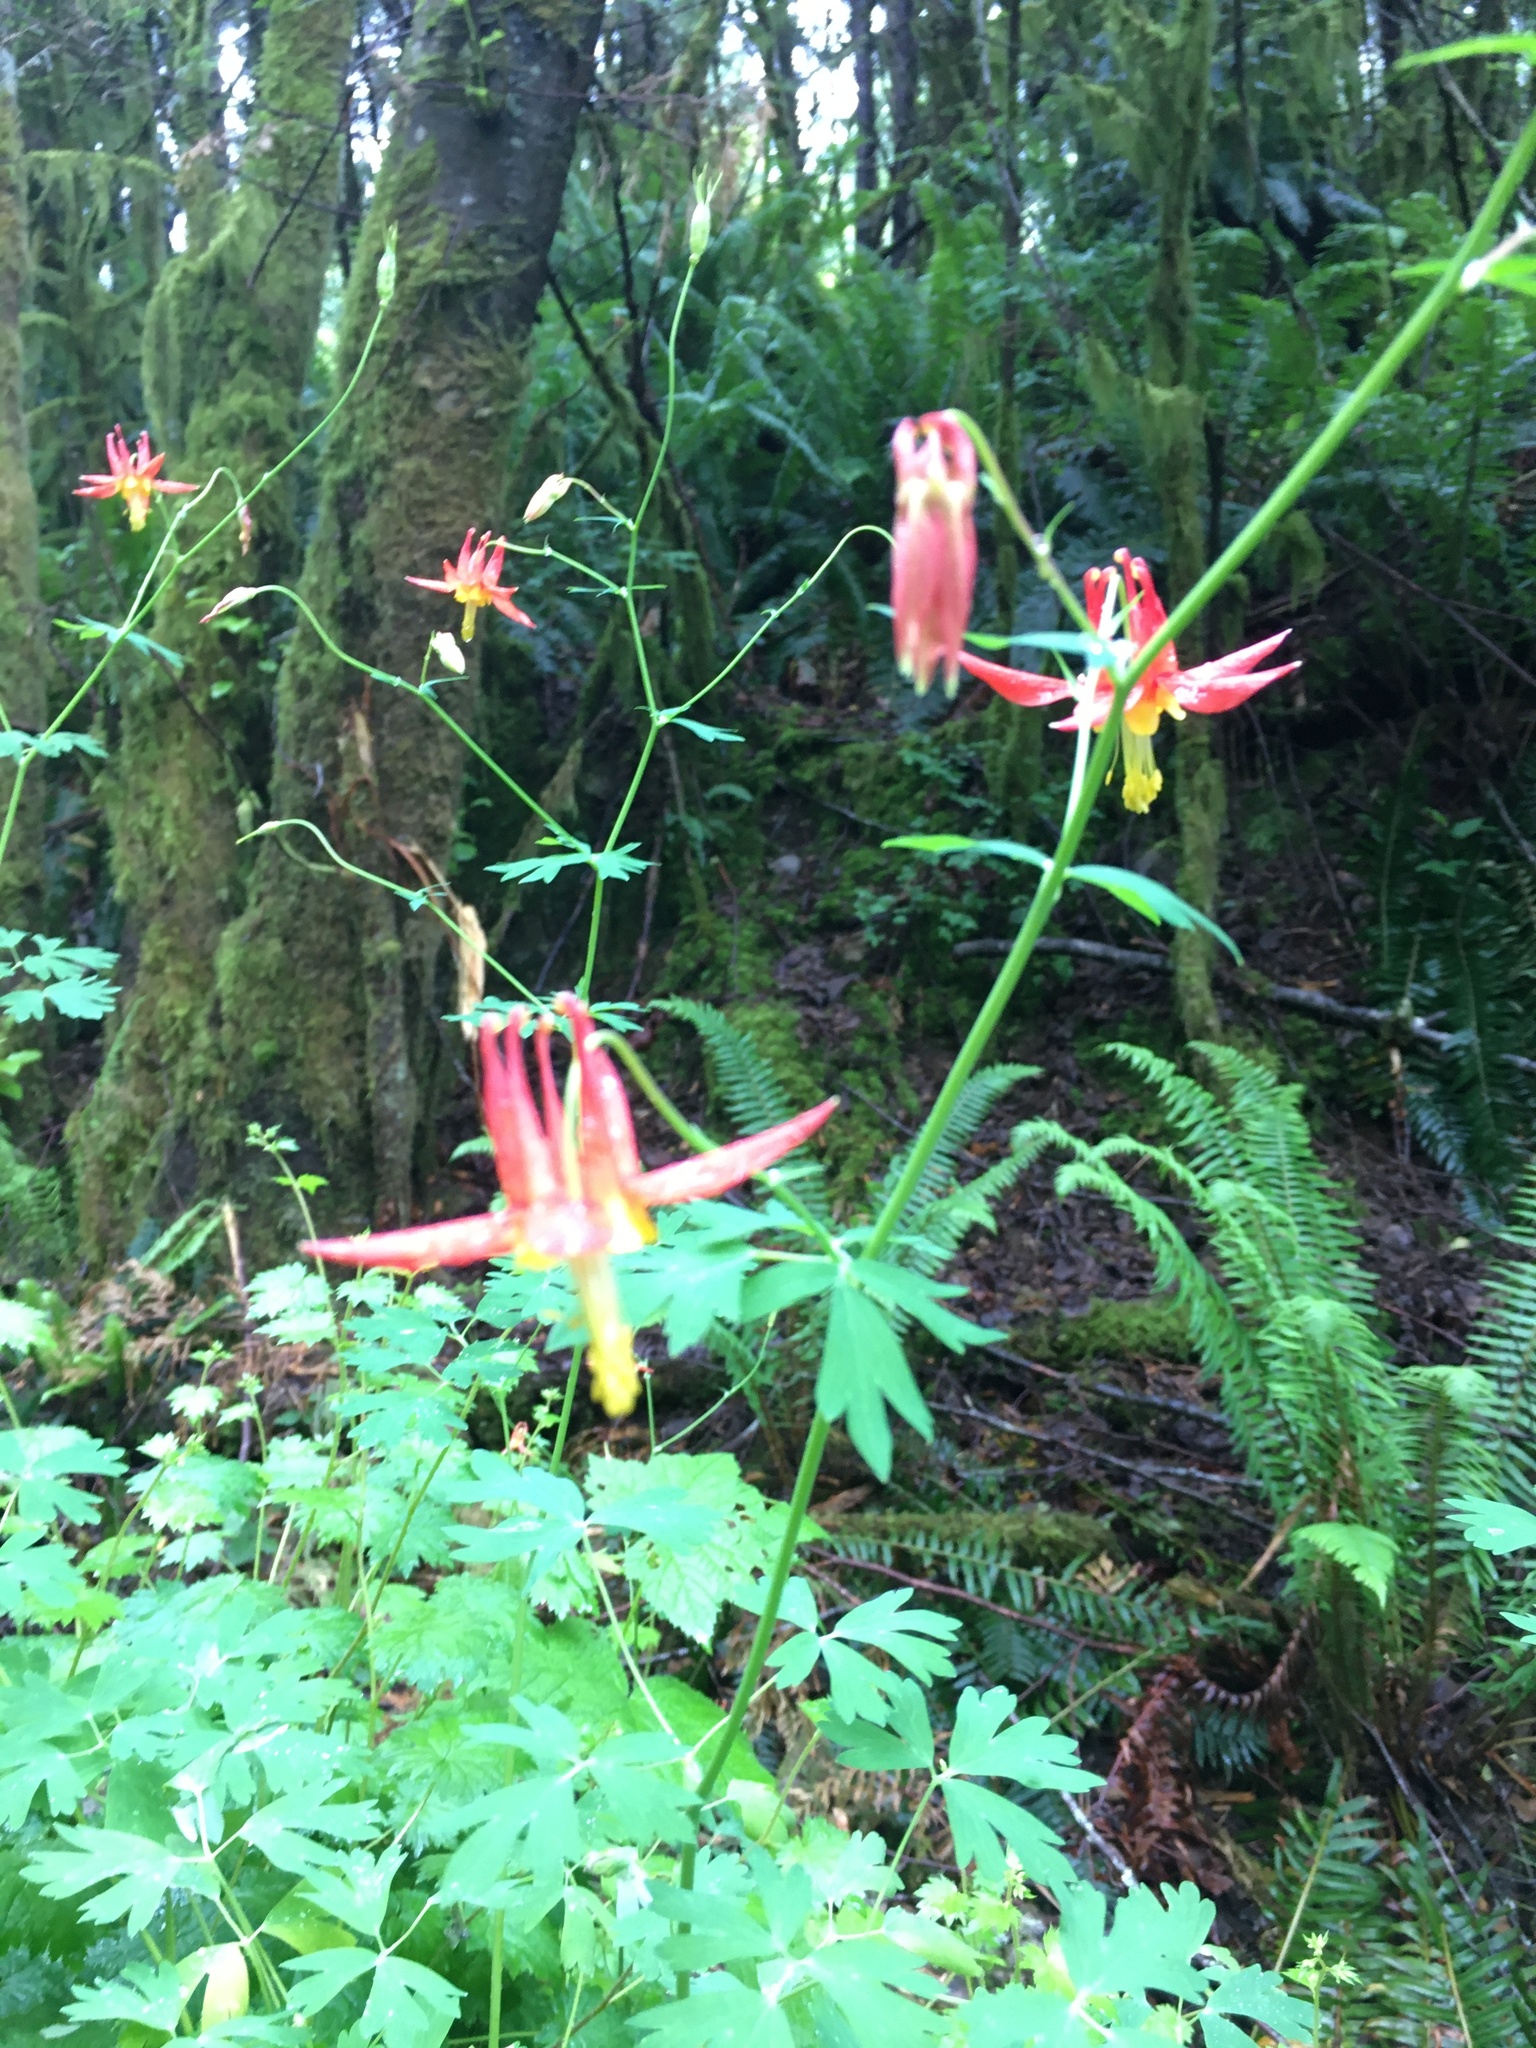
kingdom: Plantae
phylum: Tracheophyta
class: Magnoliopsida
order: Ranunculales
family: Ranunculaceae
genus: Aquilegia
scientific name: Aquilegia formosa
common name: Sitka columbine
